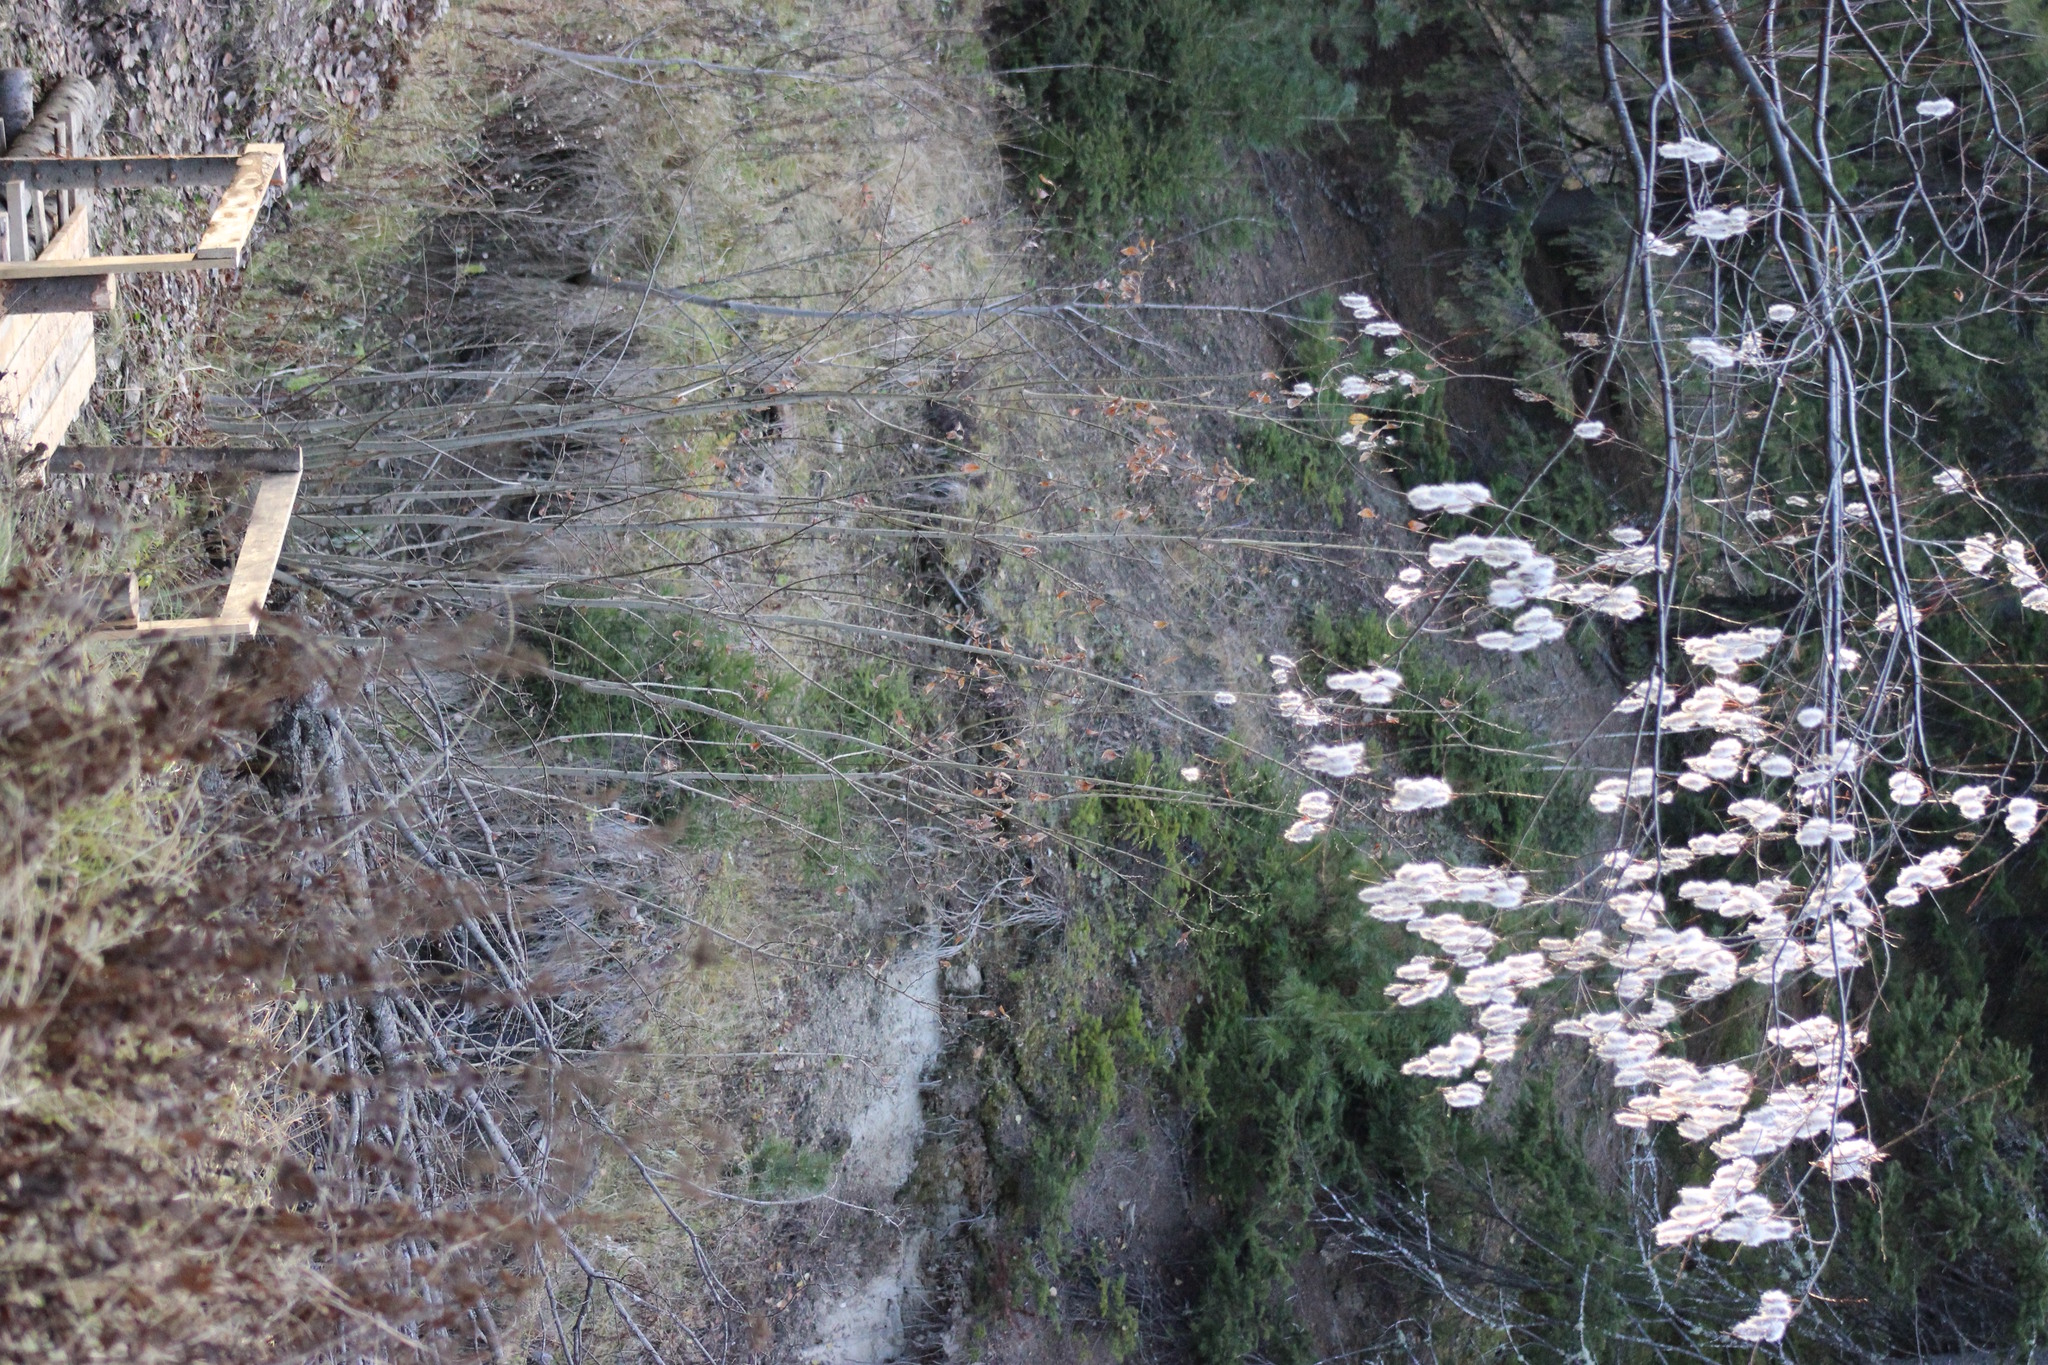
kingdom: Plantae
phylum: Tracheophyta
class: Magnoliopsida
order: Malpighiales
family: Salicaceae
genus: Salix
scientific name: Salix pentandra
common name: Bay willow
